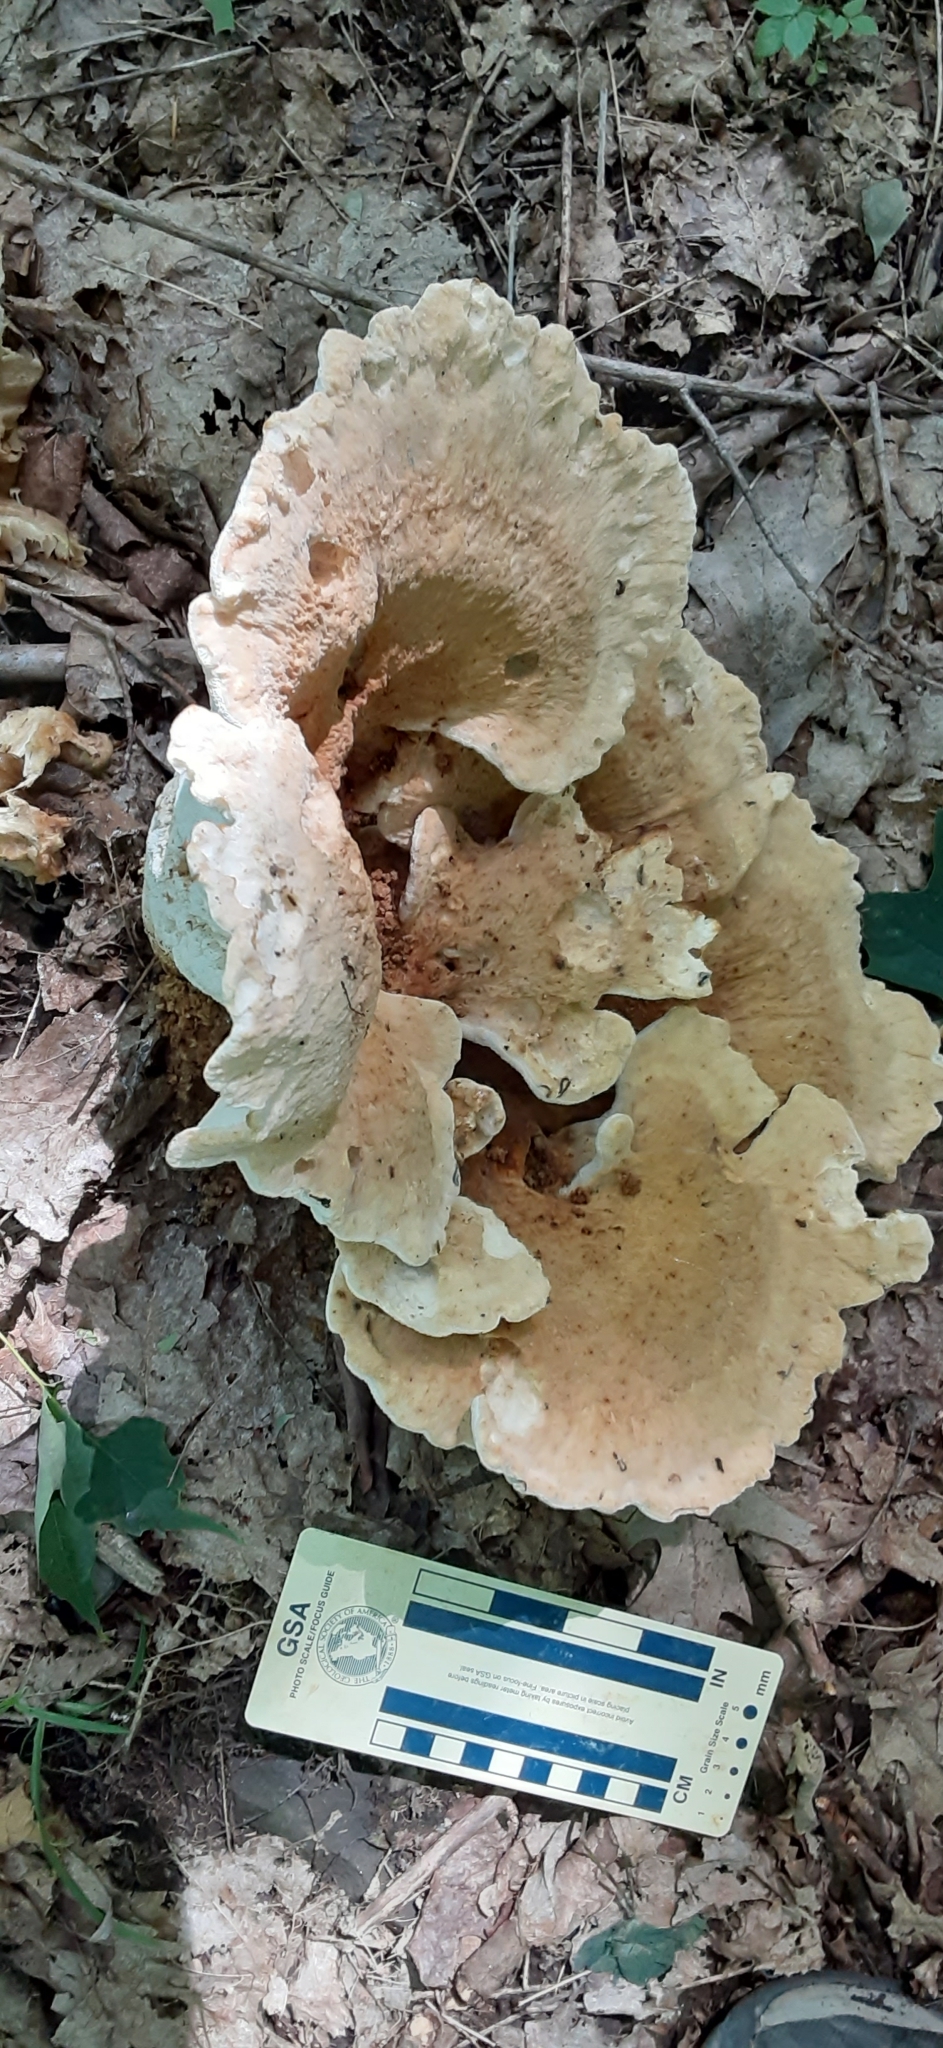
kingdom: Fungi
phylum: Basidiomycota
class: Agaricomycetes
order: Russulales
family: Bondarzewiaceae
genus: Bondarzewia
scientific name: Bondarzewia berkeleyi
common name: Berkeley's polypore
